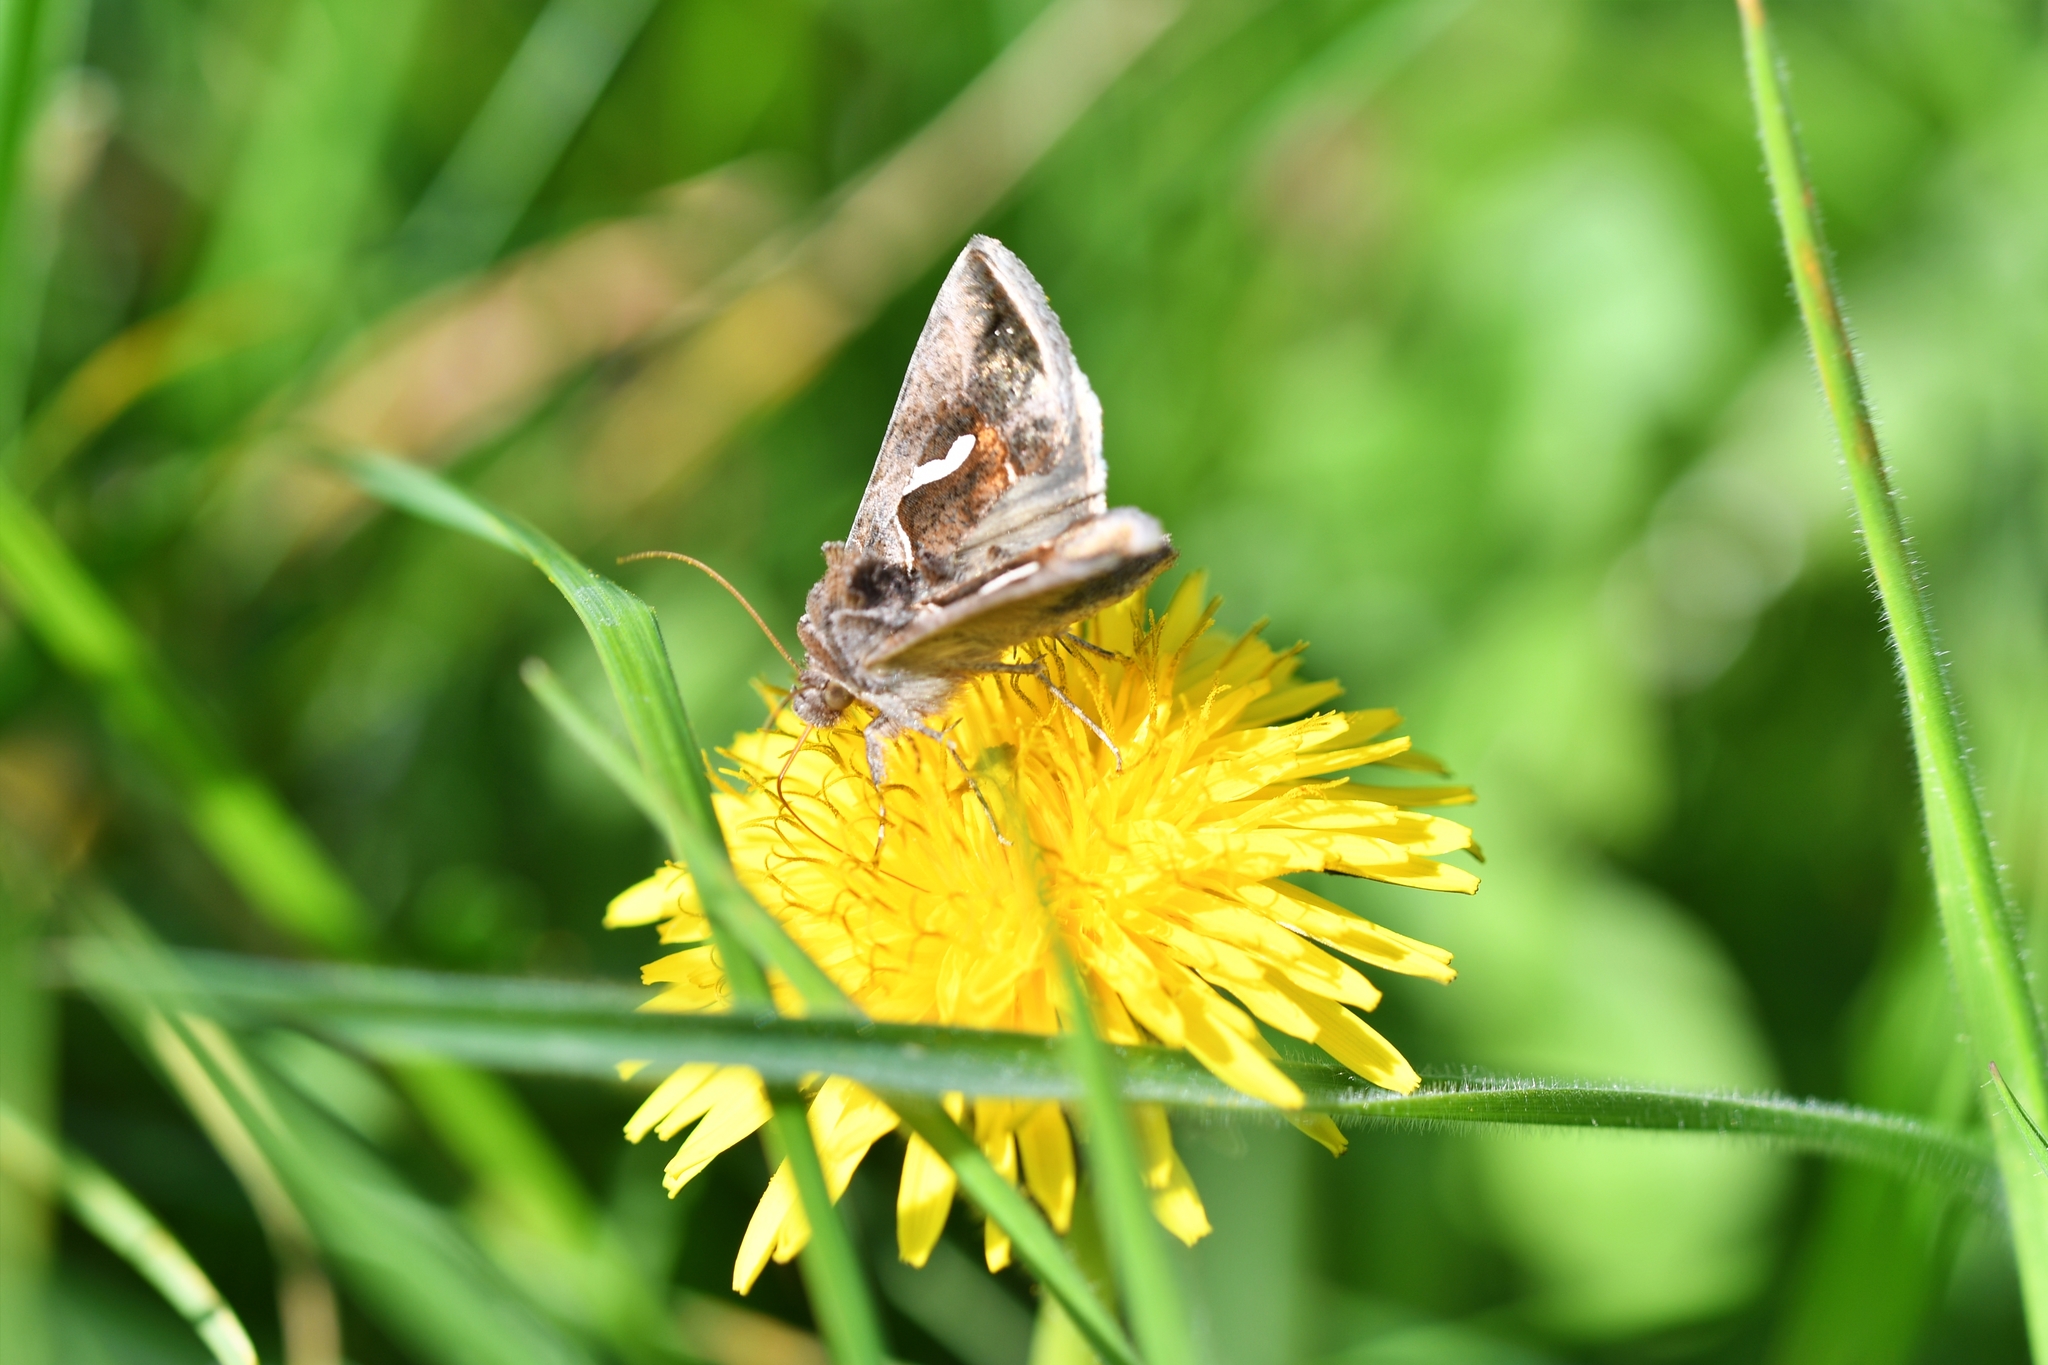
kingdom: Animalia
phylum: Arthropoda
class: Insecta
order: Lepidoptera
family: Noctuidae
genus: Macdunnoughia
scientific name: Macdunnoughia confusa
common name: Dewick's plusia
